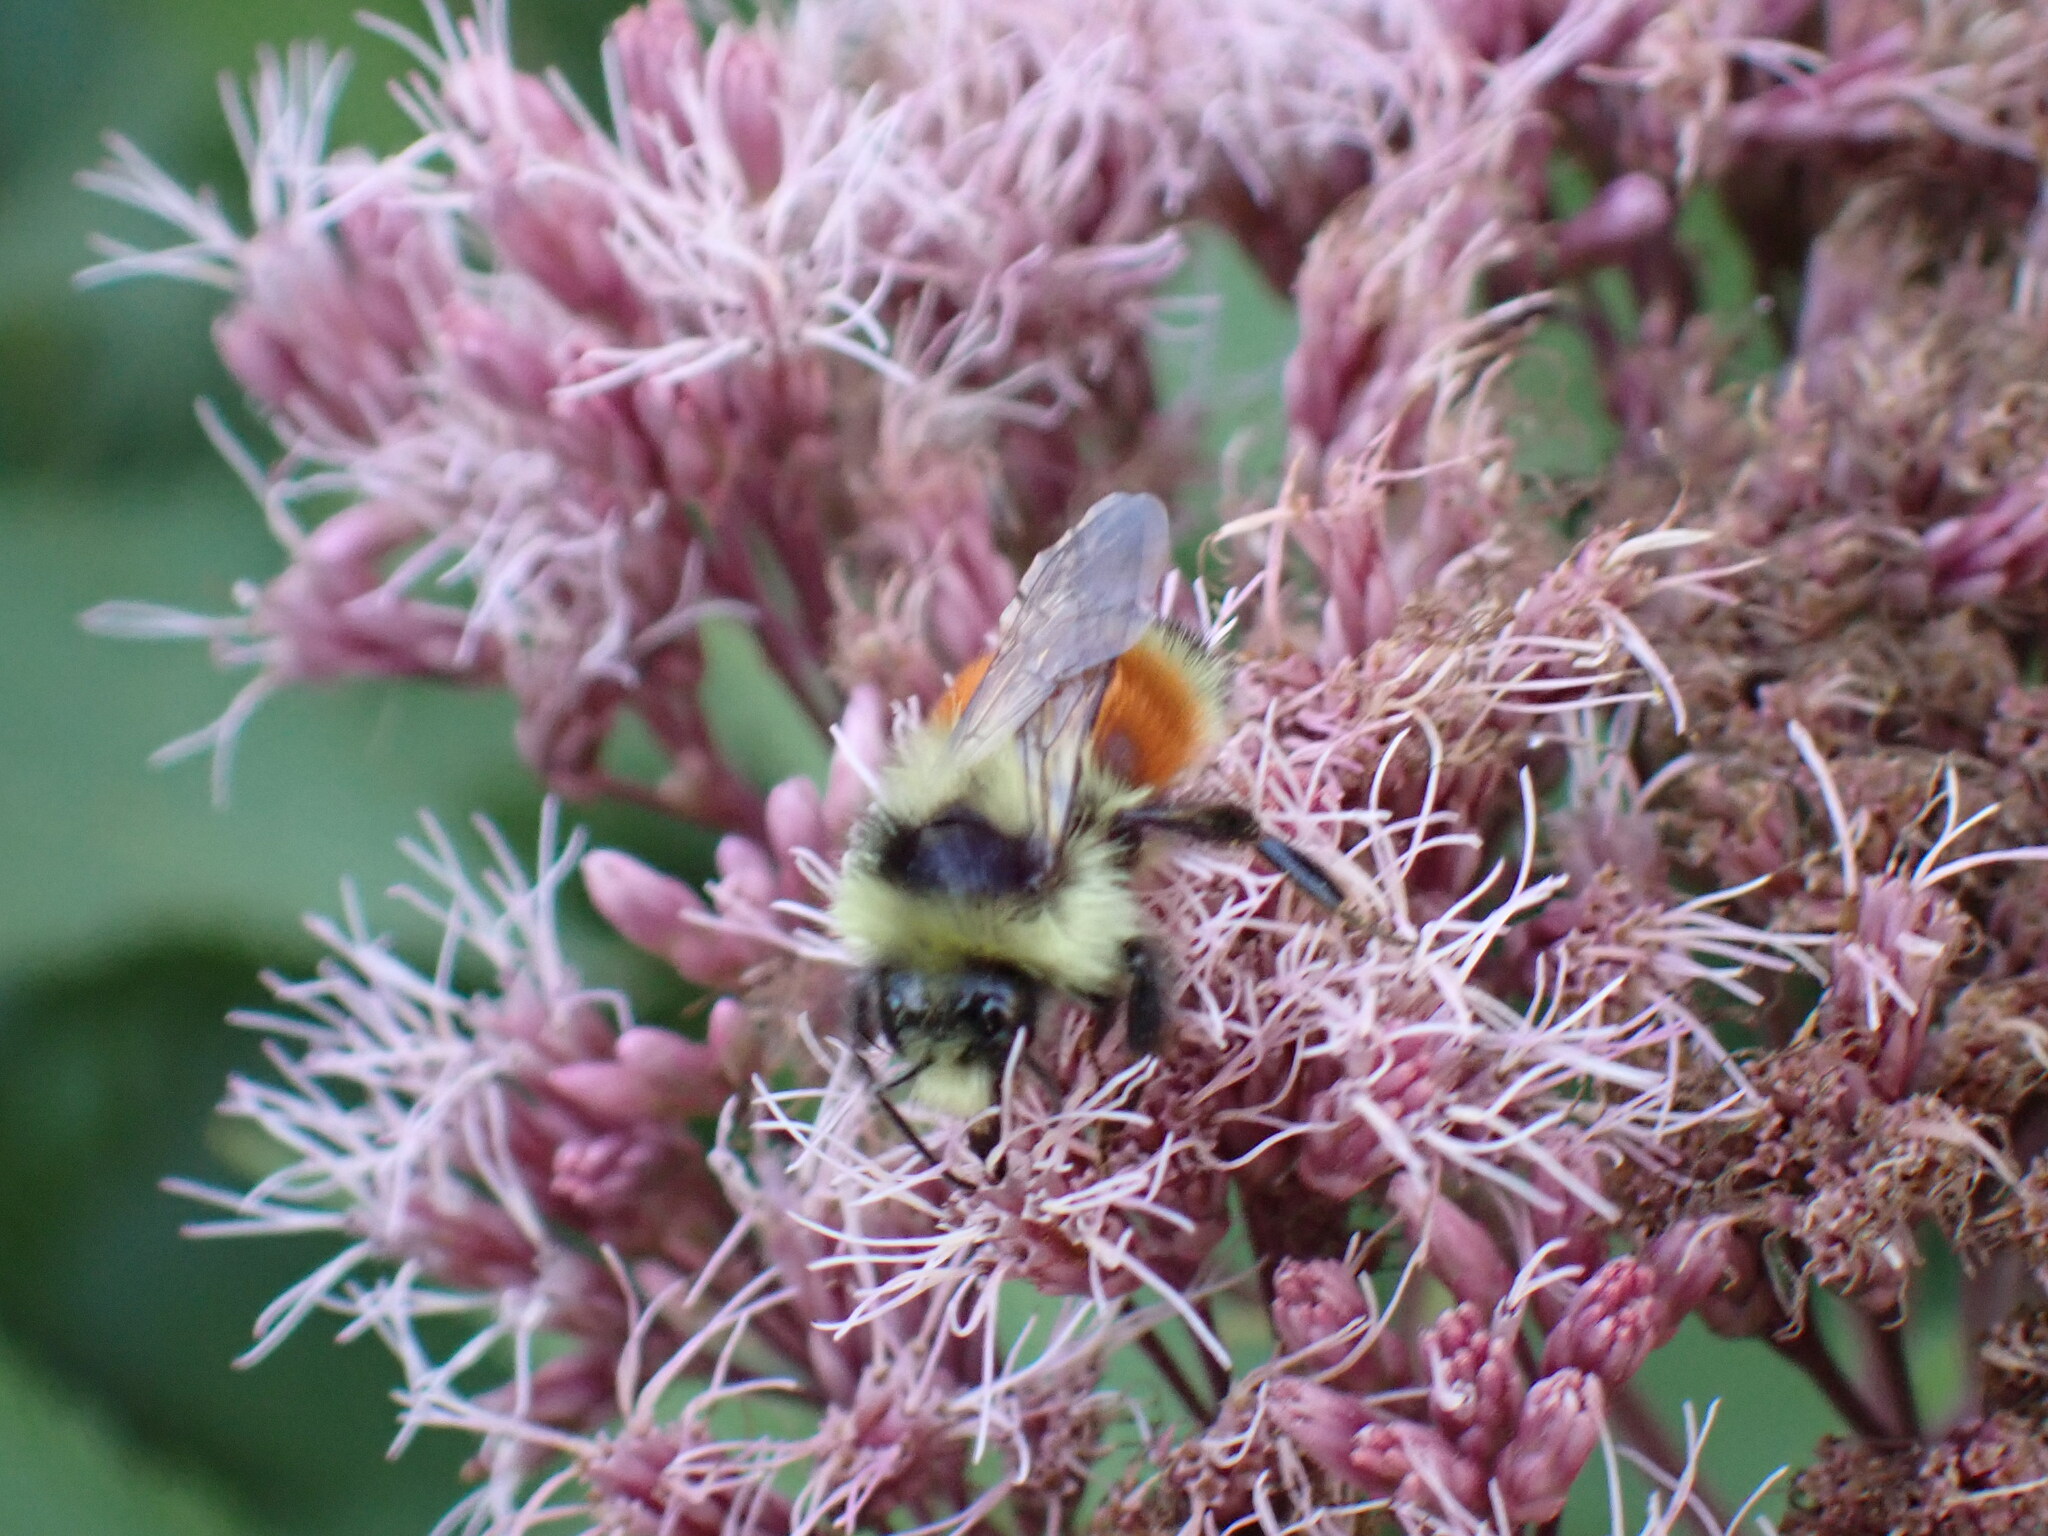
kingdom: Animalia
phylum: Arthropoda
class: Insecta
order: Hymenoptera
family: Apidae
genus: Bombus
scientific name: Bombus ternarius
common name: Tri-colored bumble bee
